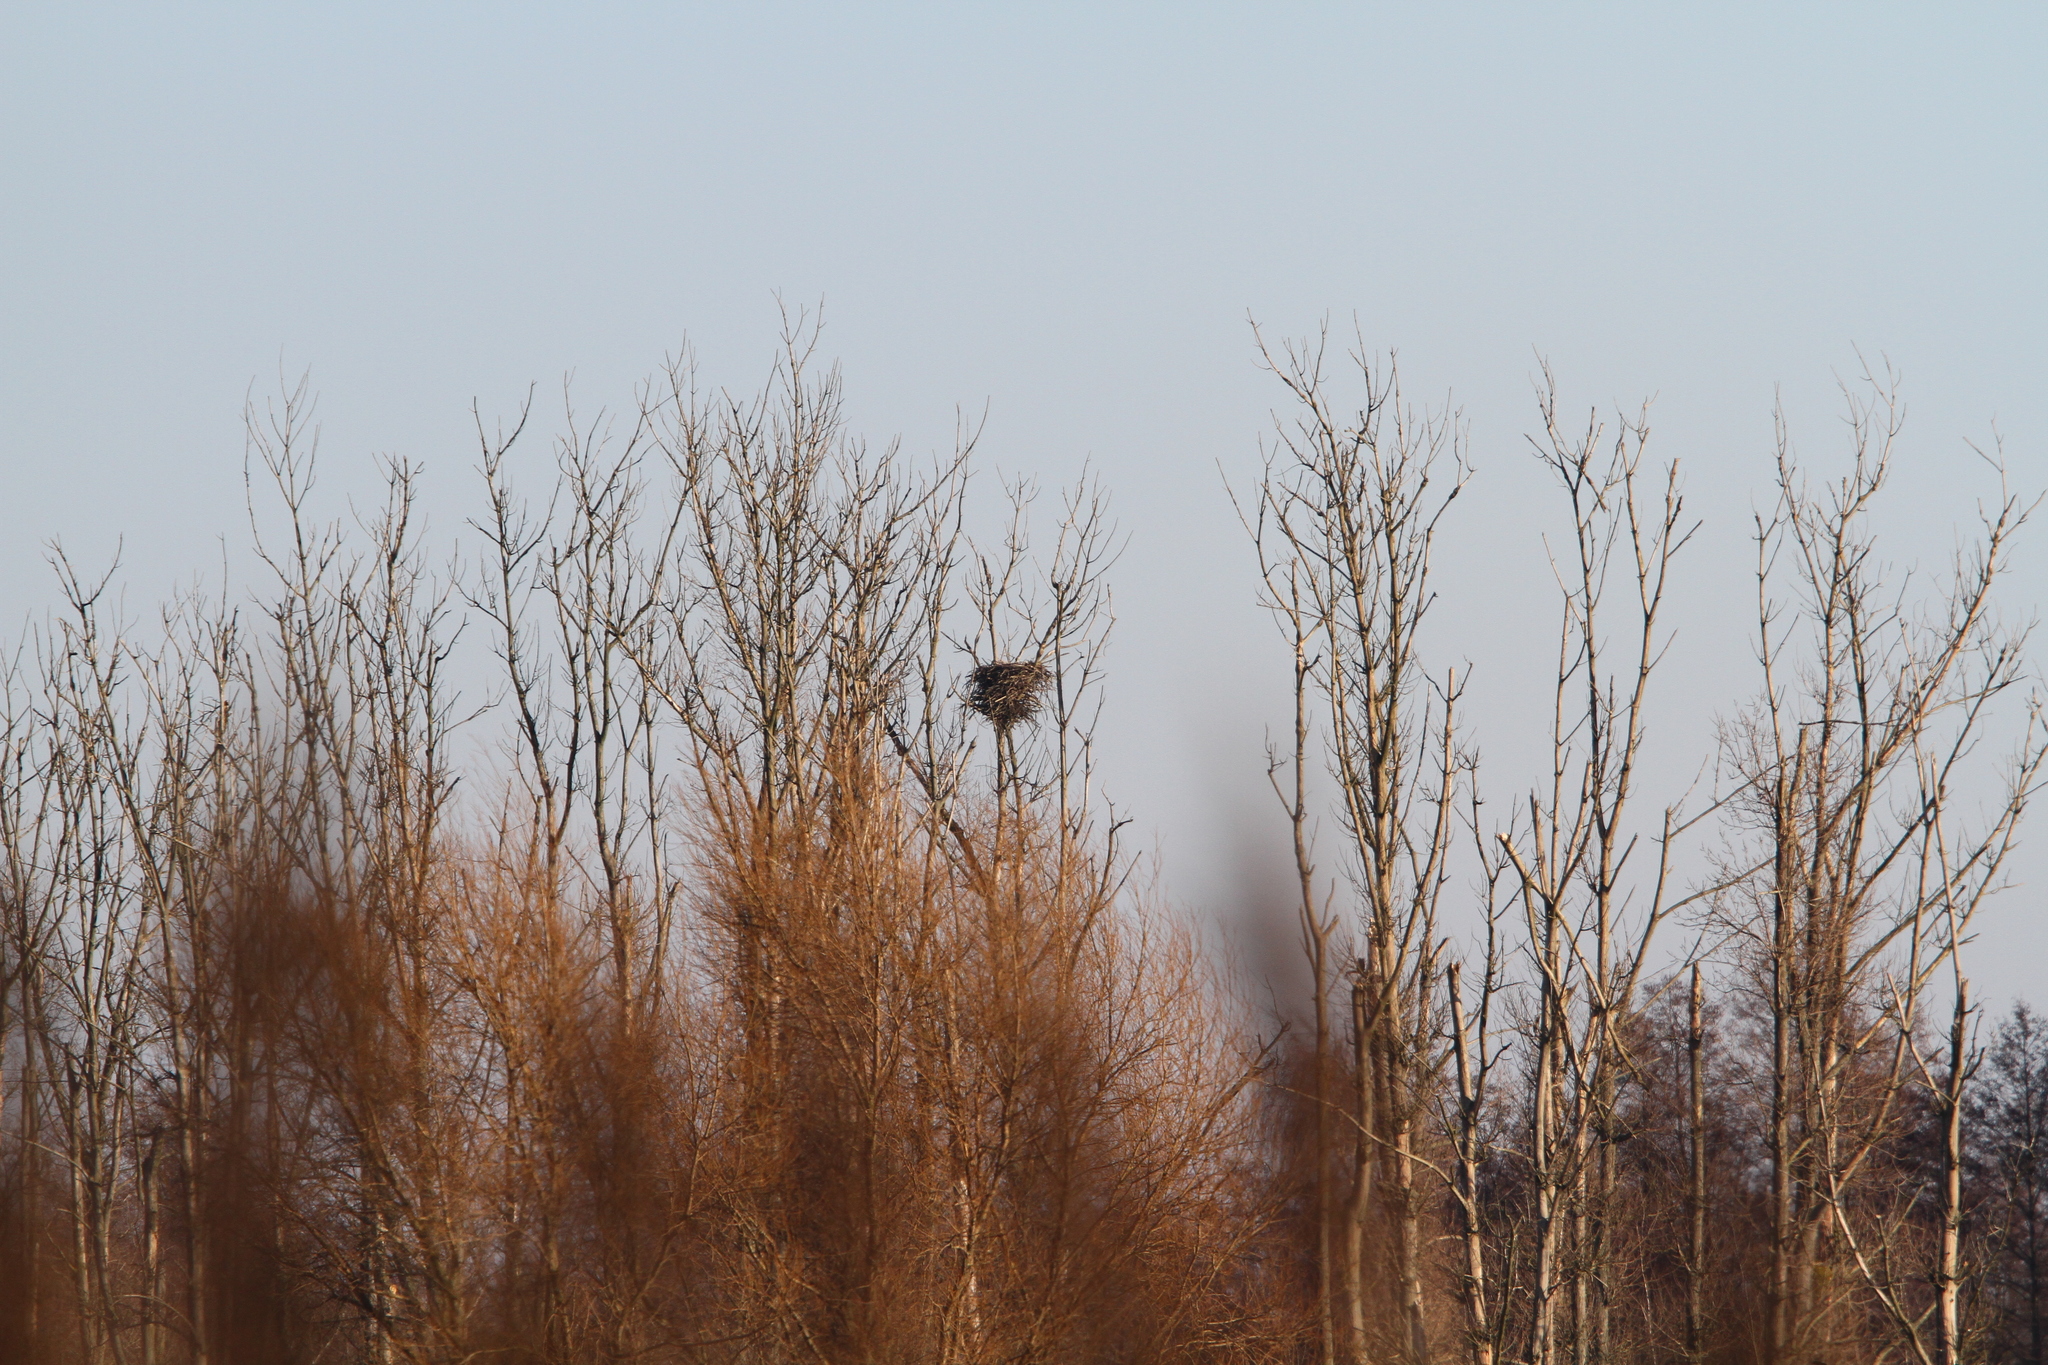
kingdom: Animalia
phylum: Chordata
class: Aves
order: Accipitriformes
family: Accipitridae
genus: Haliaeetus
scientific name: Haliaeetus albicilla
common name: White-tailed eagle
